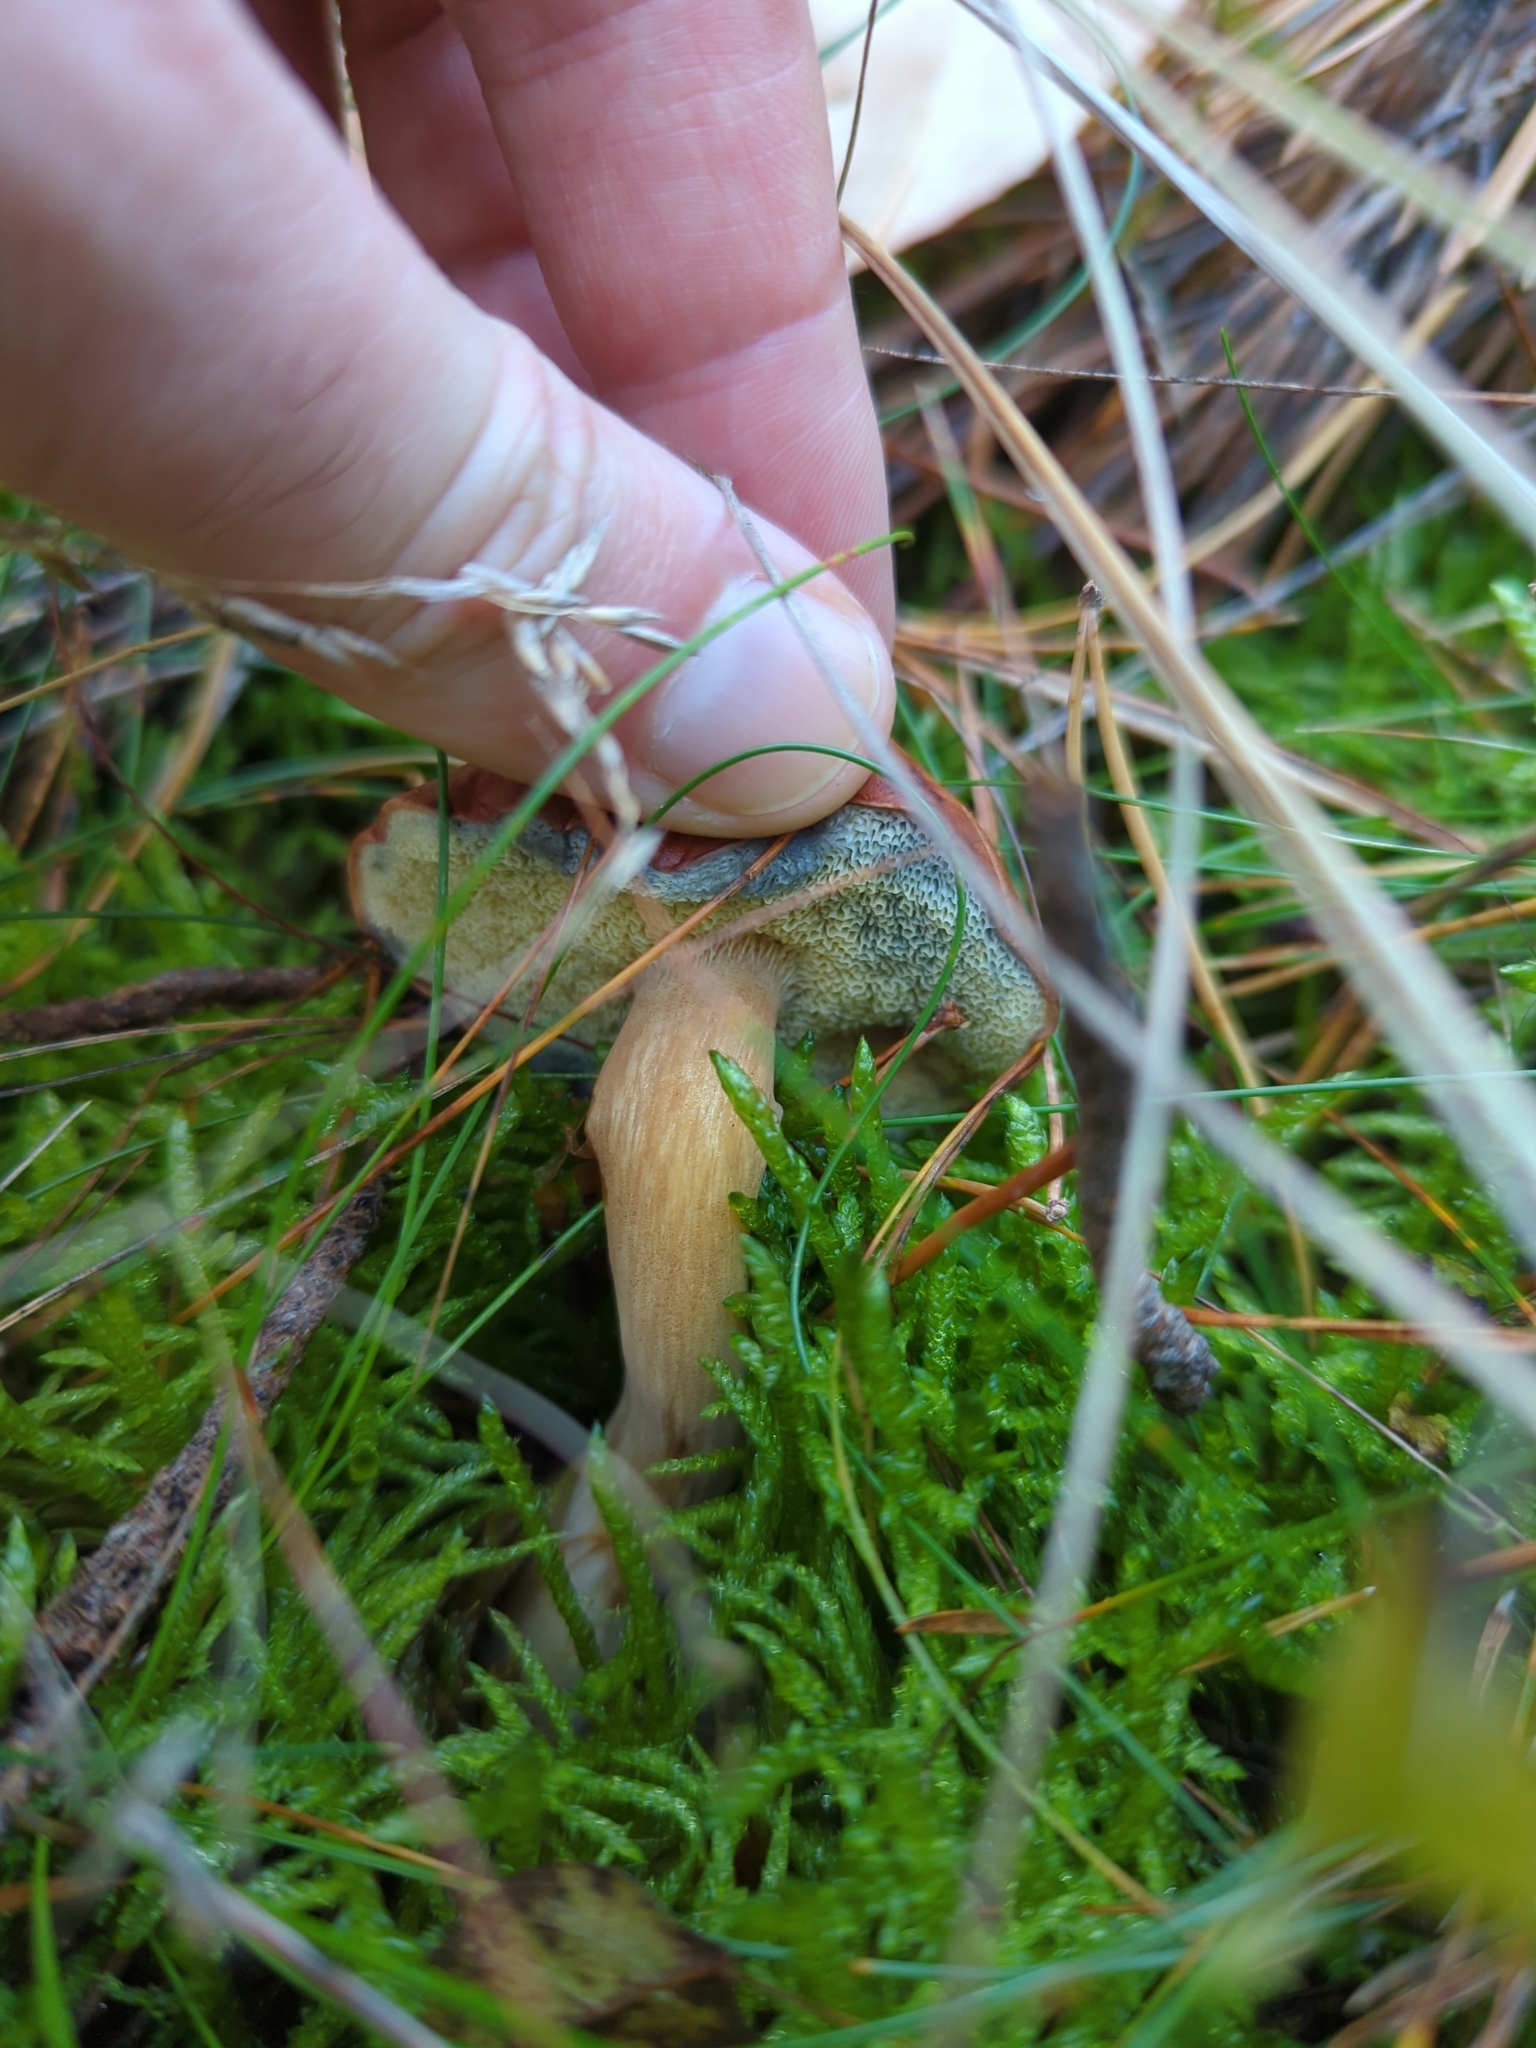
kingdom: Fungi
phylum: Basidiomycota
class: Agaricomycetes
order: Boletales
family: Boletaceae
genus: Imleria
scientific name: Imleria badia
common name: Bay bolete
